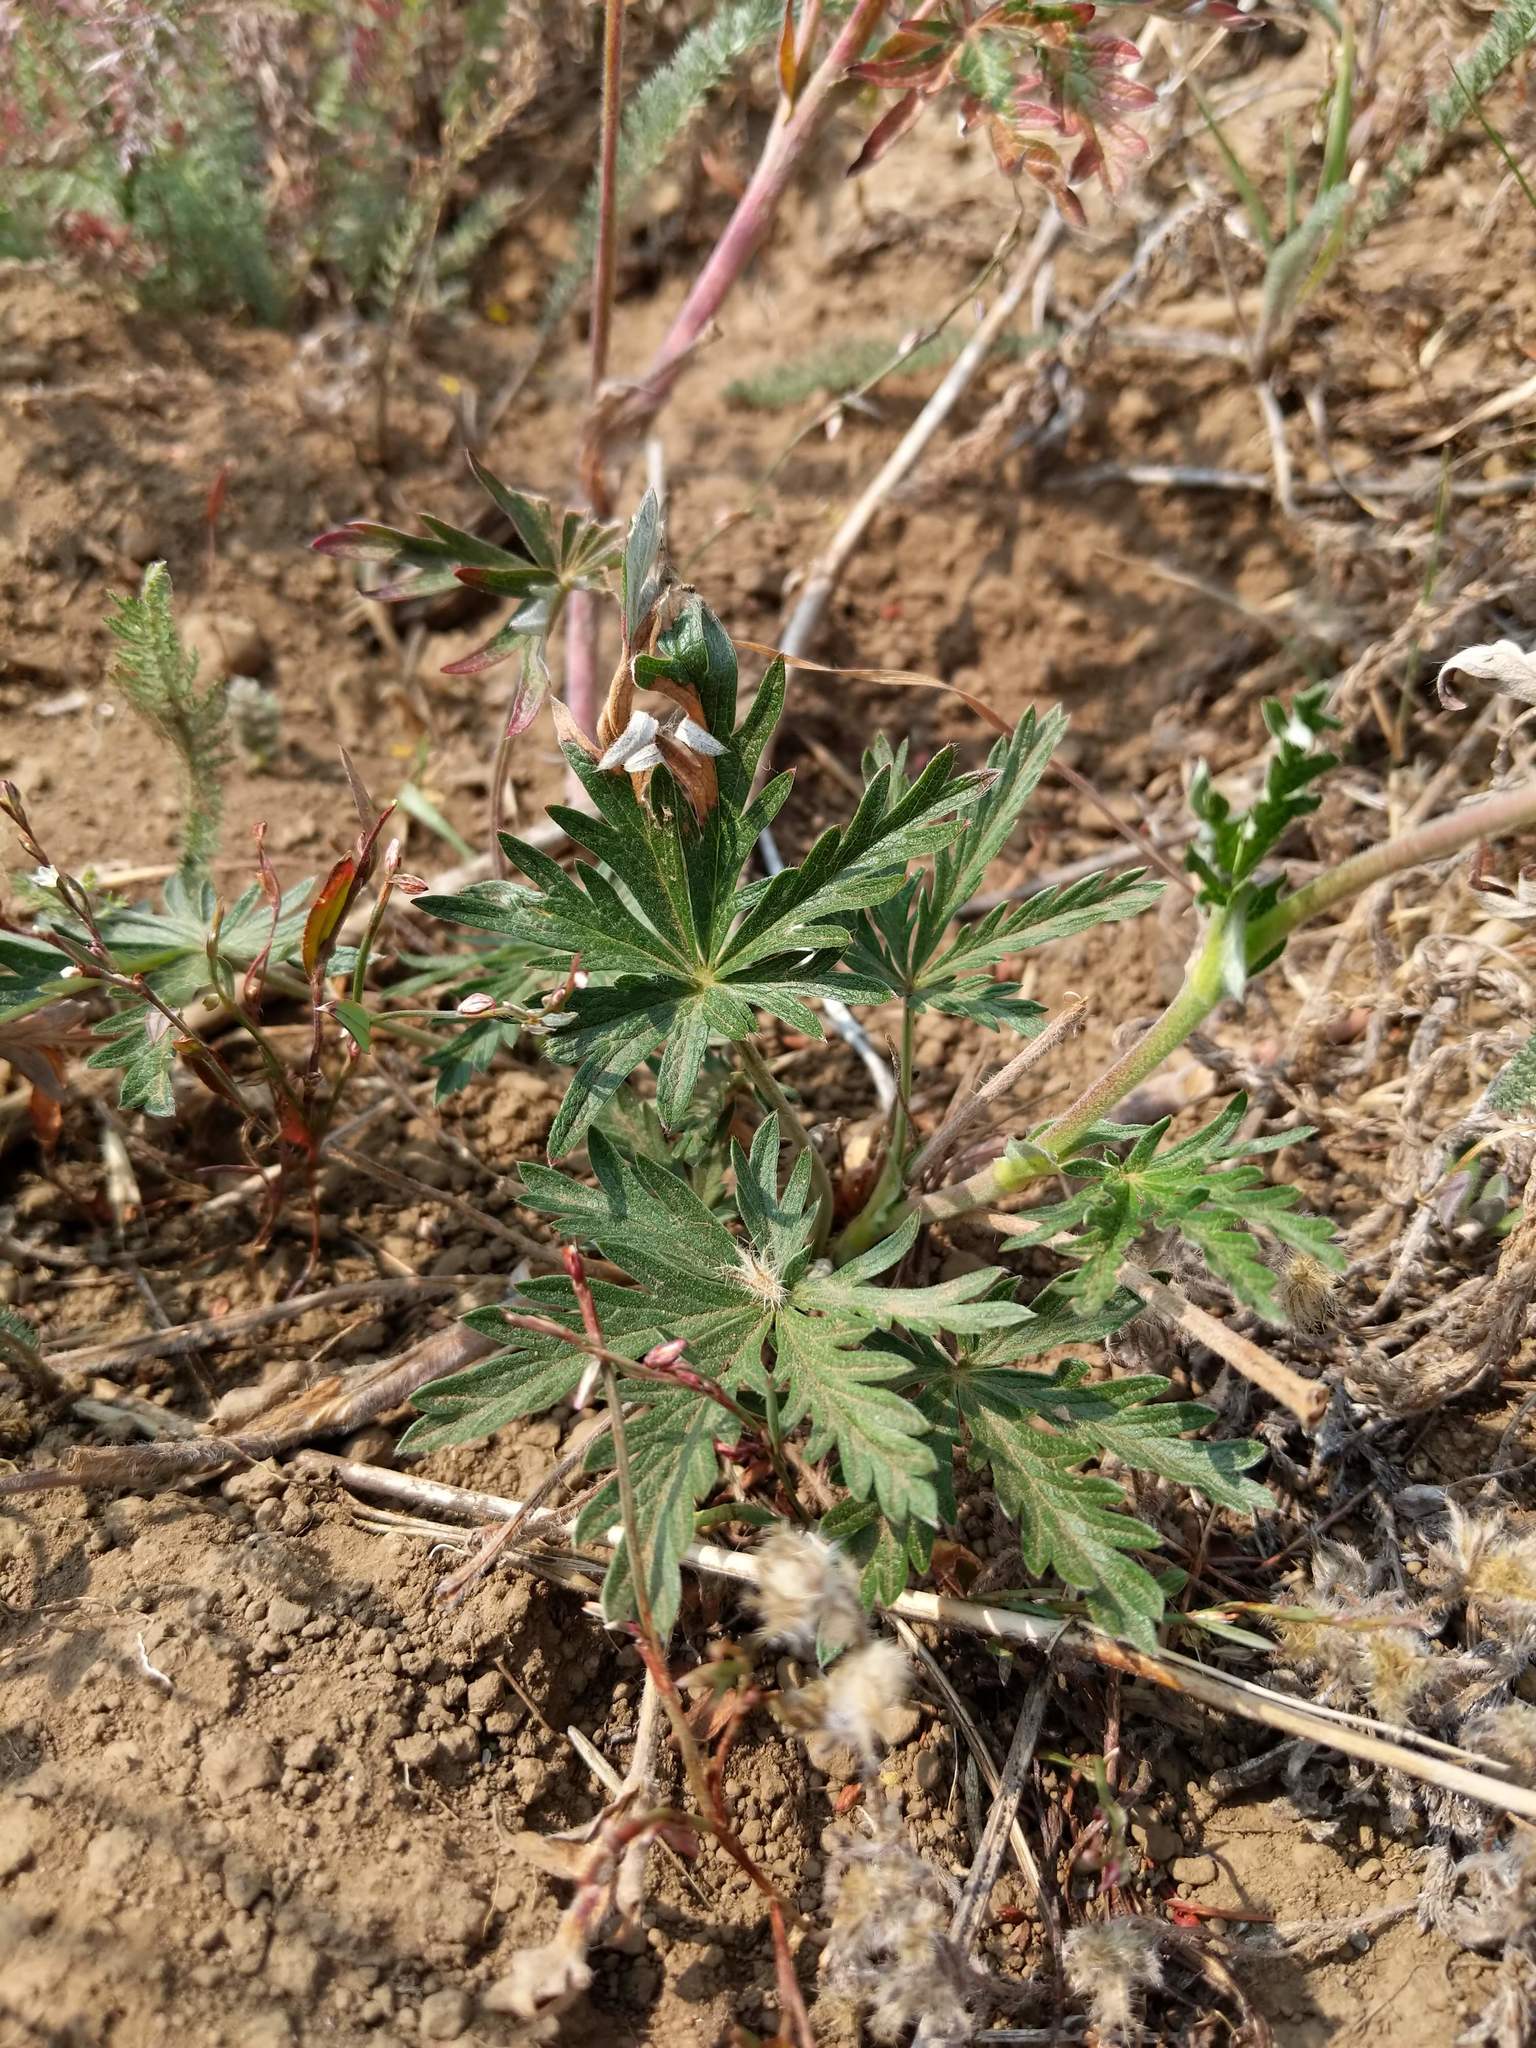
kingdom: Plantae
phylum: Tracheophyta
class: Magnoliopsida
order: Rosales
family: Rosaceae
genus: Potentilla
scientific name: Potentilla gracilis
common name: Graceful cinquefoil
